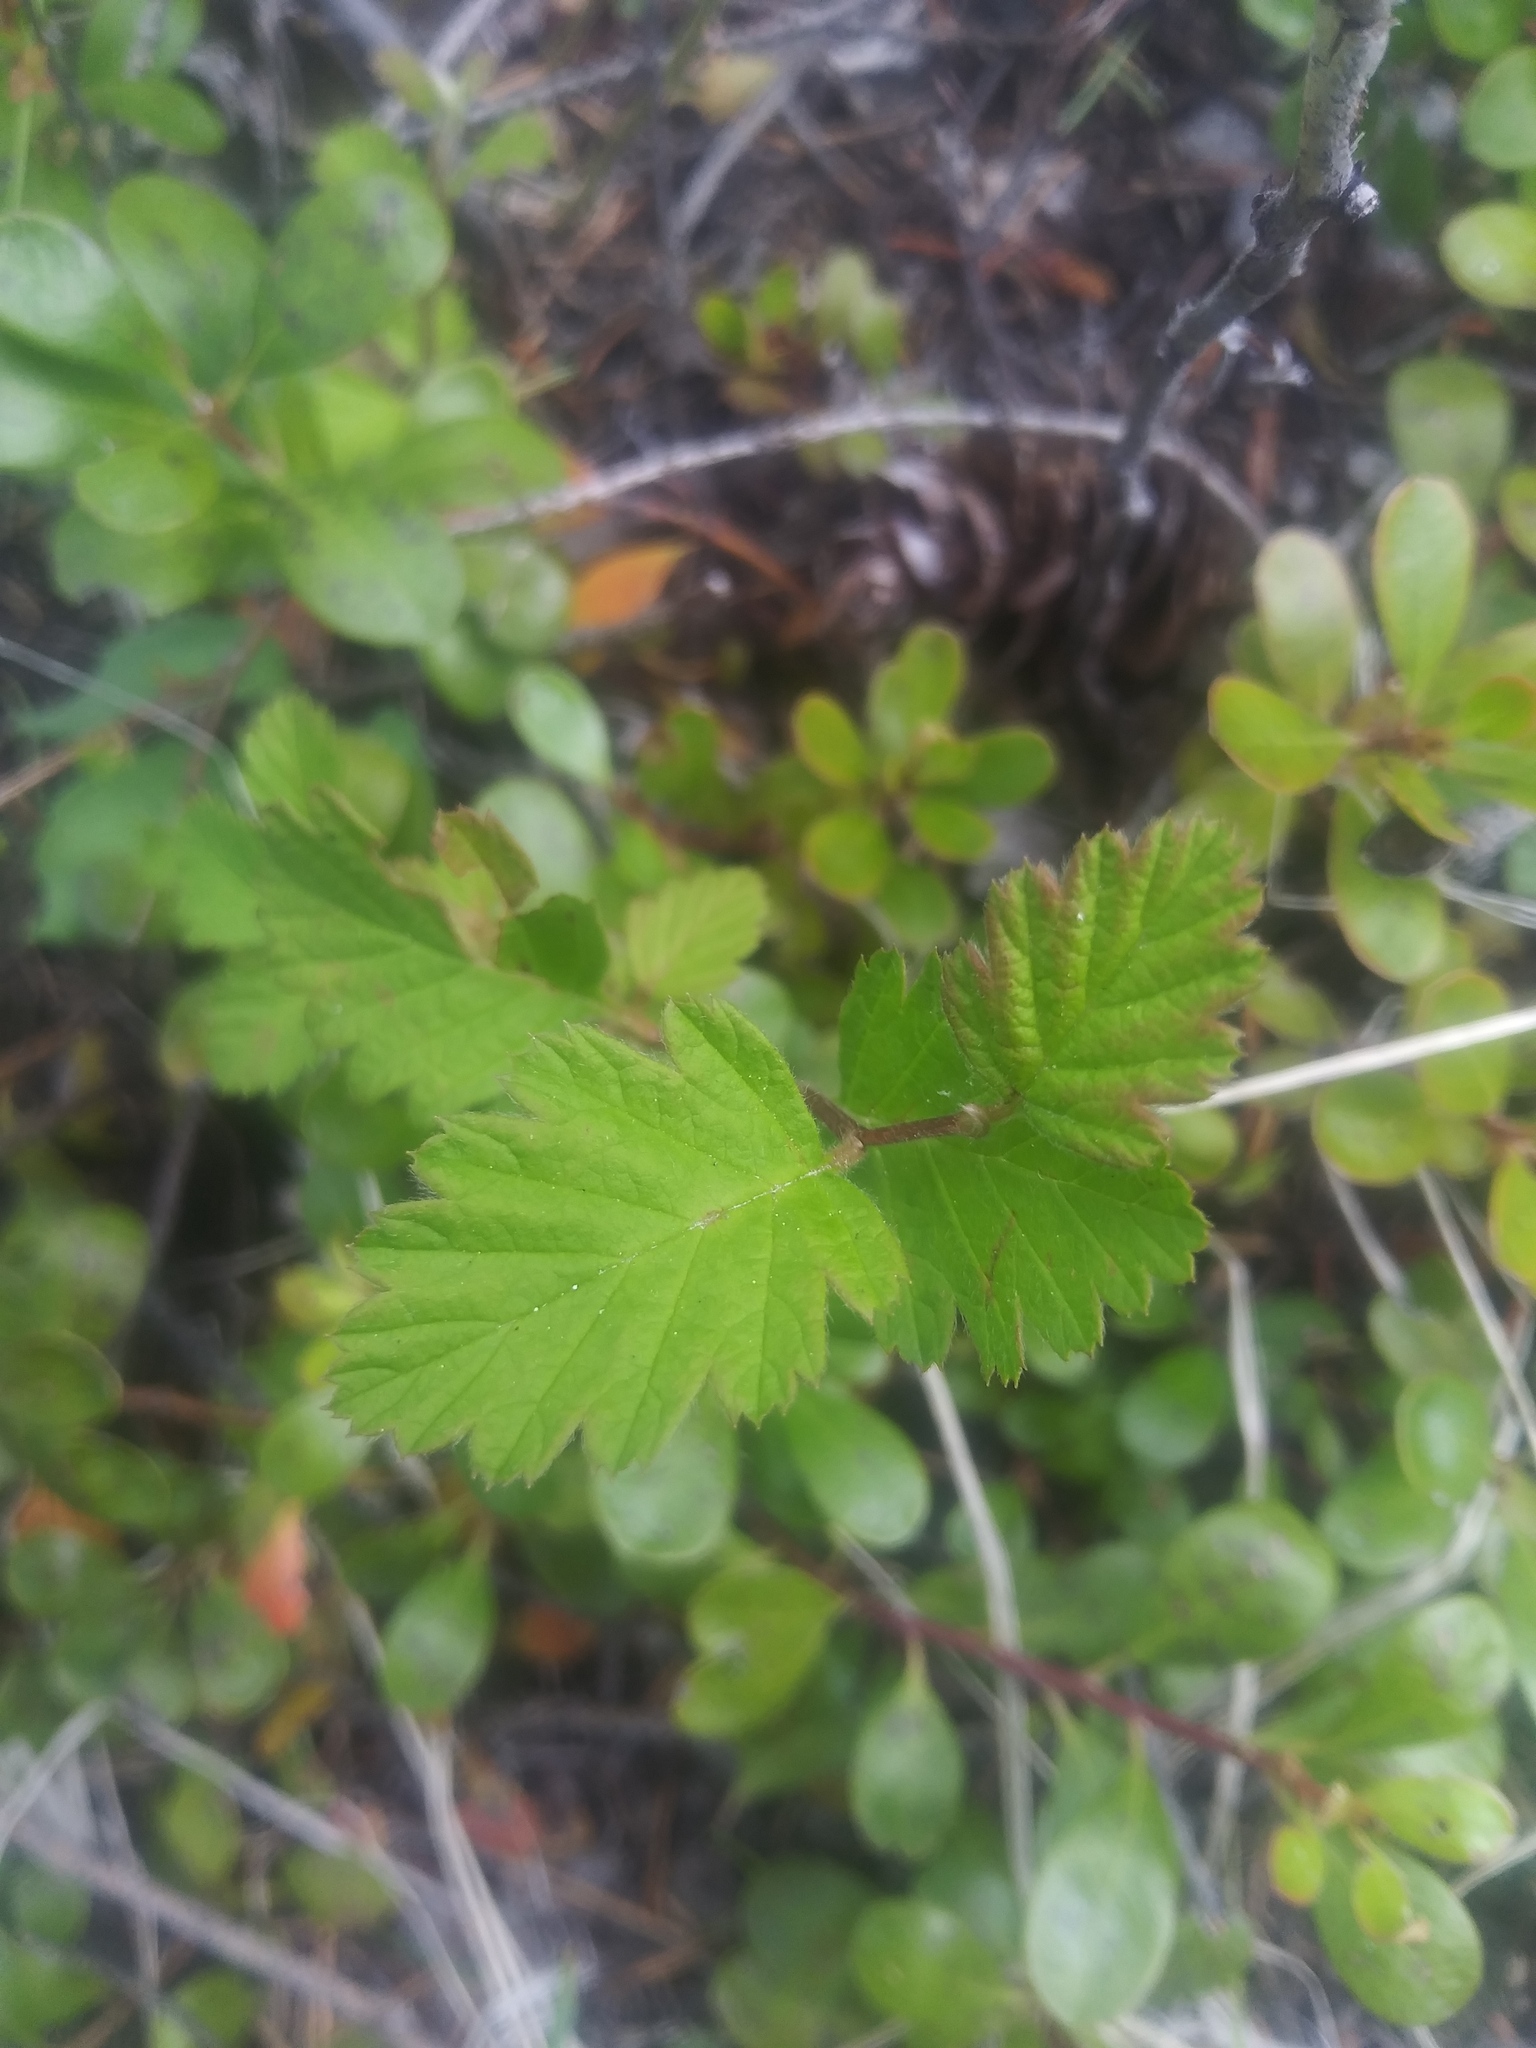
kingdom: Plantae
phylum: Tracheophyta
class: Magnoliopsida
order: Rosales
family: Rosaceae
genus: Holodiscus
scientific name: Holodiscus discolor
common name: Oceanspray
